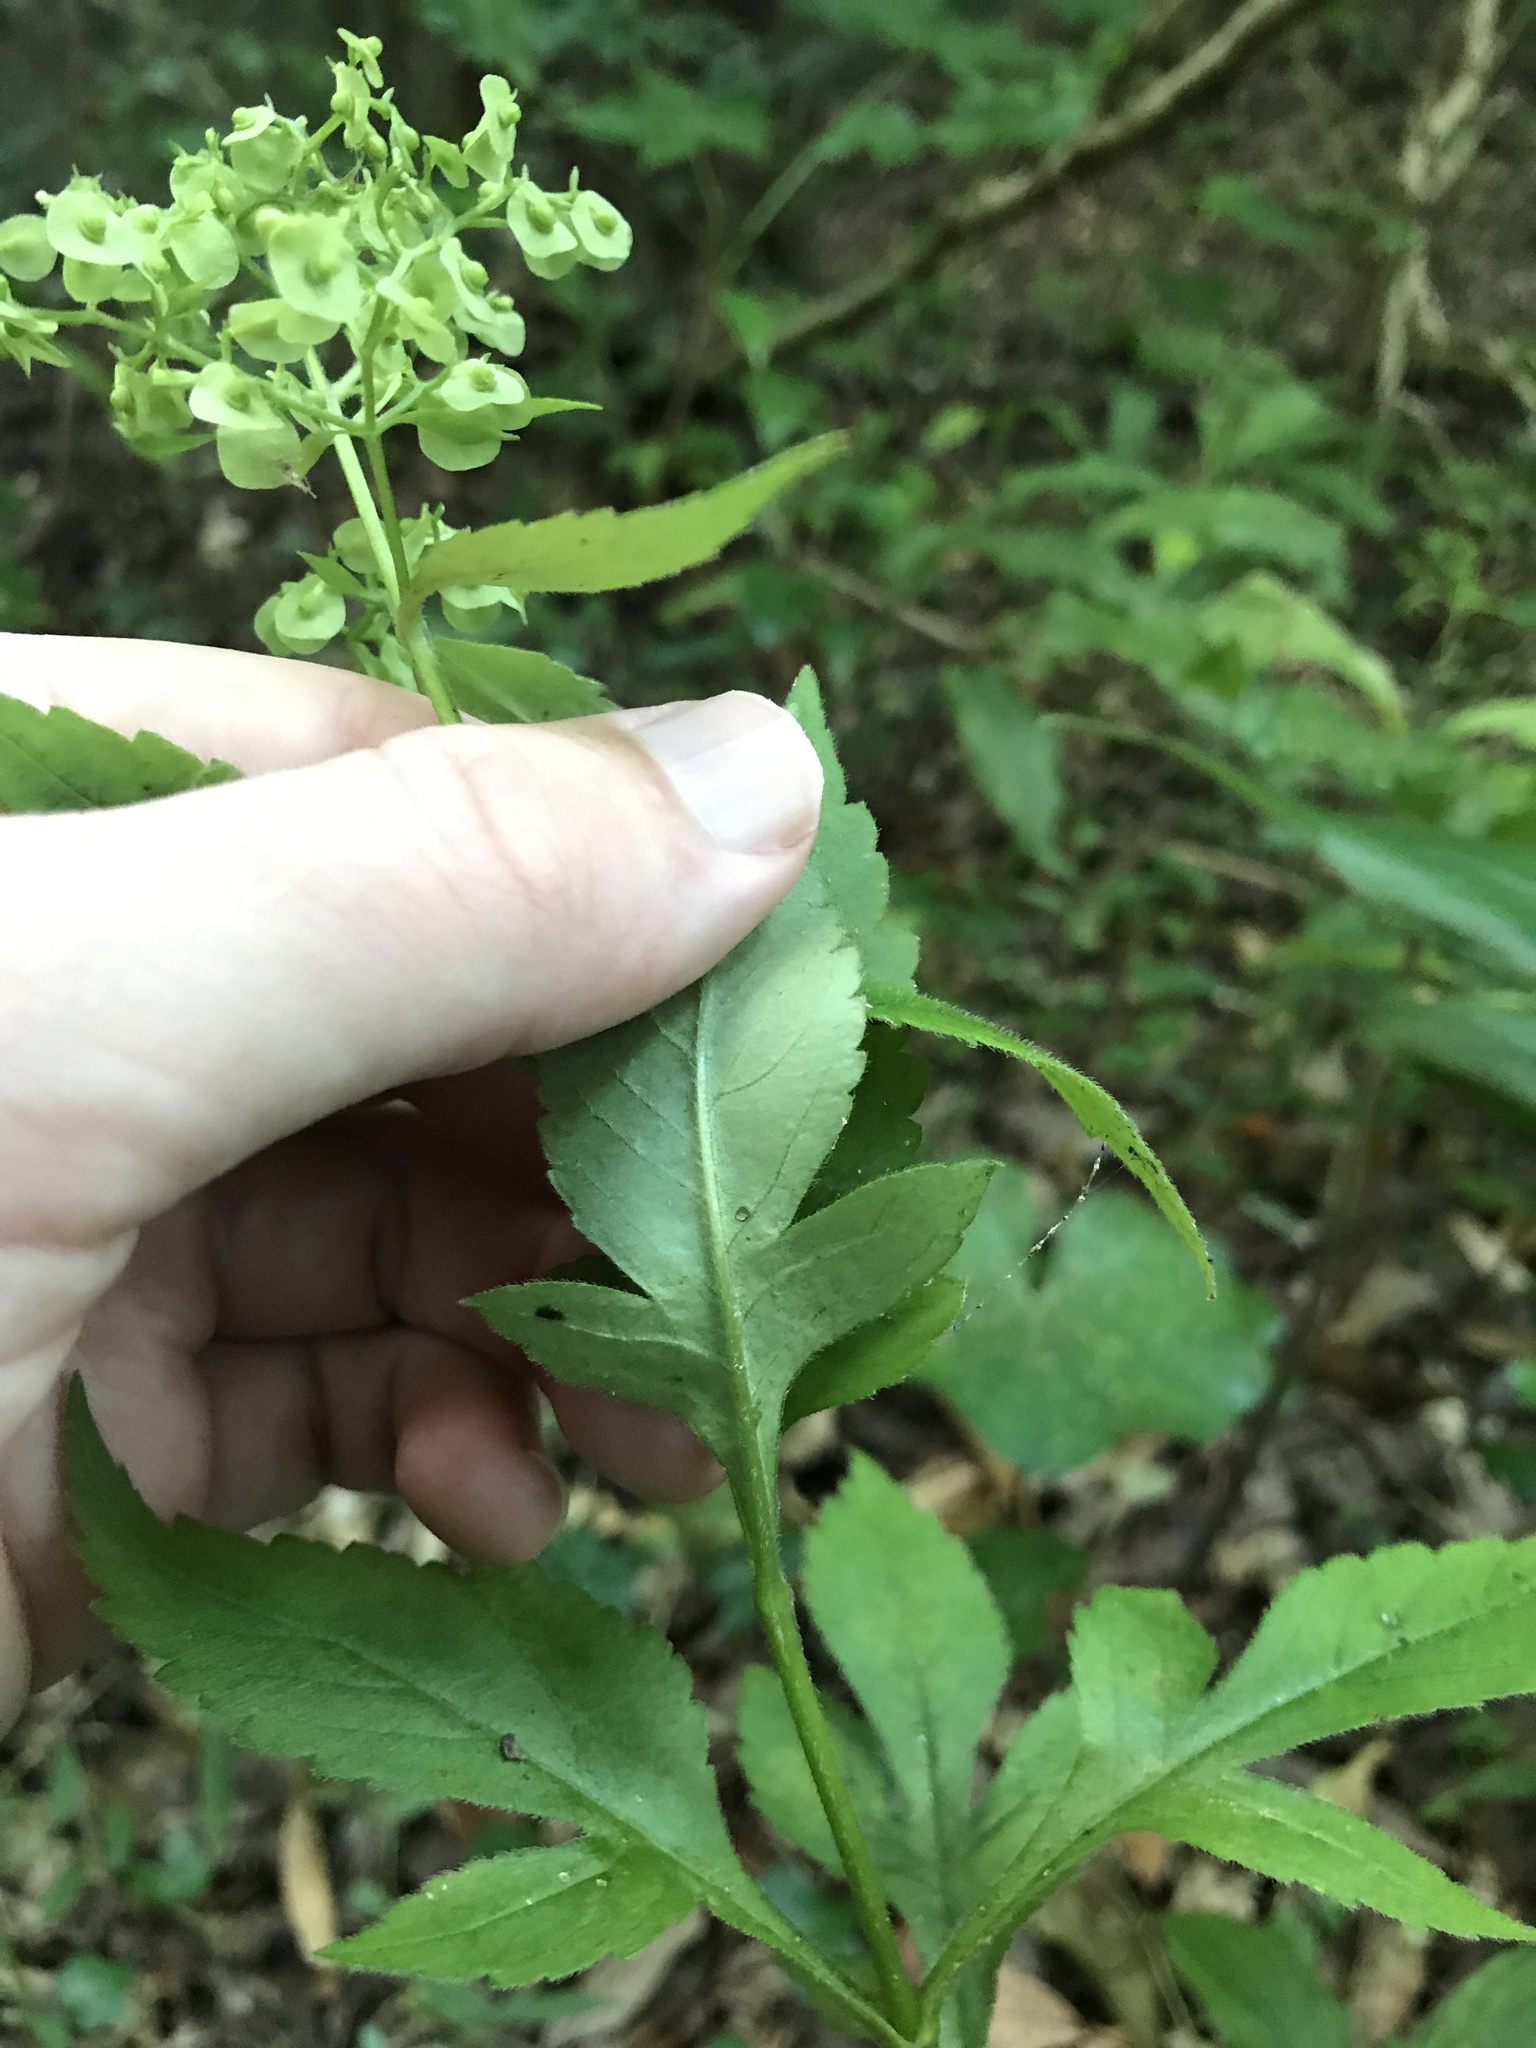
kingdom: Plantae
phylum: Tracheophyta
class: Magnoliopsida
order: Dipsacales
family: Caprifoliaceae
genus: Patrinia
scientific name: Patrinia villosa
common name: Patrinia
